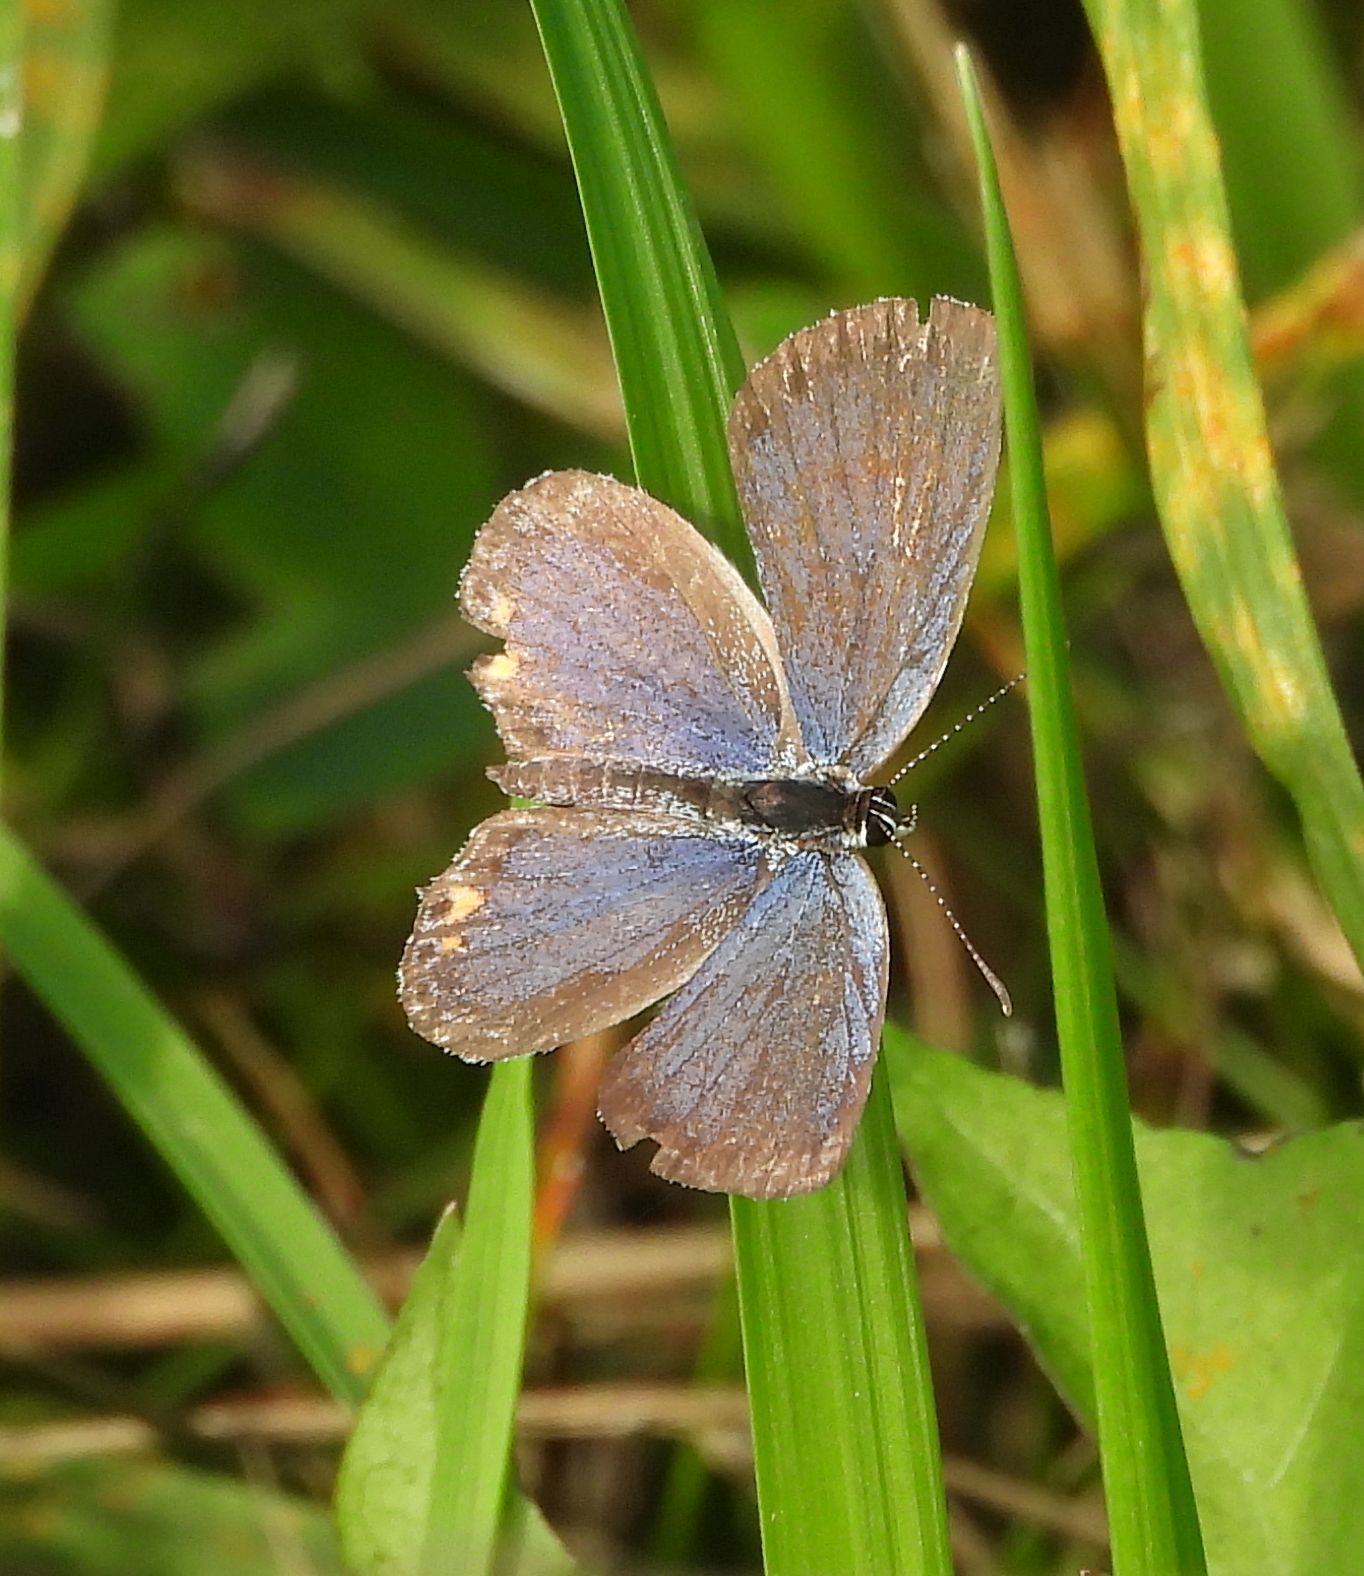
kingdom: Animalia
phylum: Arthropoda
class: Insecta
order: Lepidoptera
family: Lycaenidae
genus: Elkalyce
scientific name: Elkalyce comyntas
